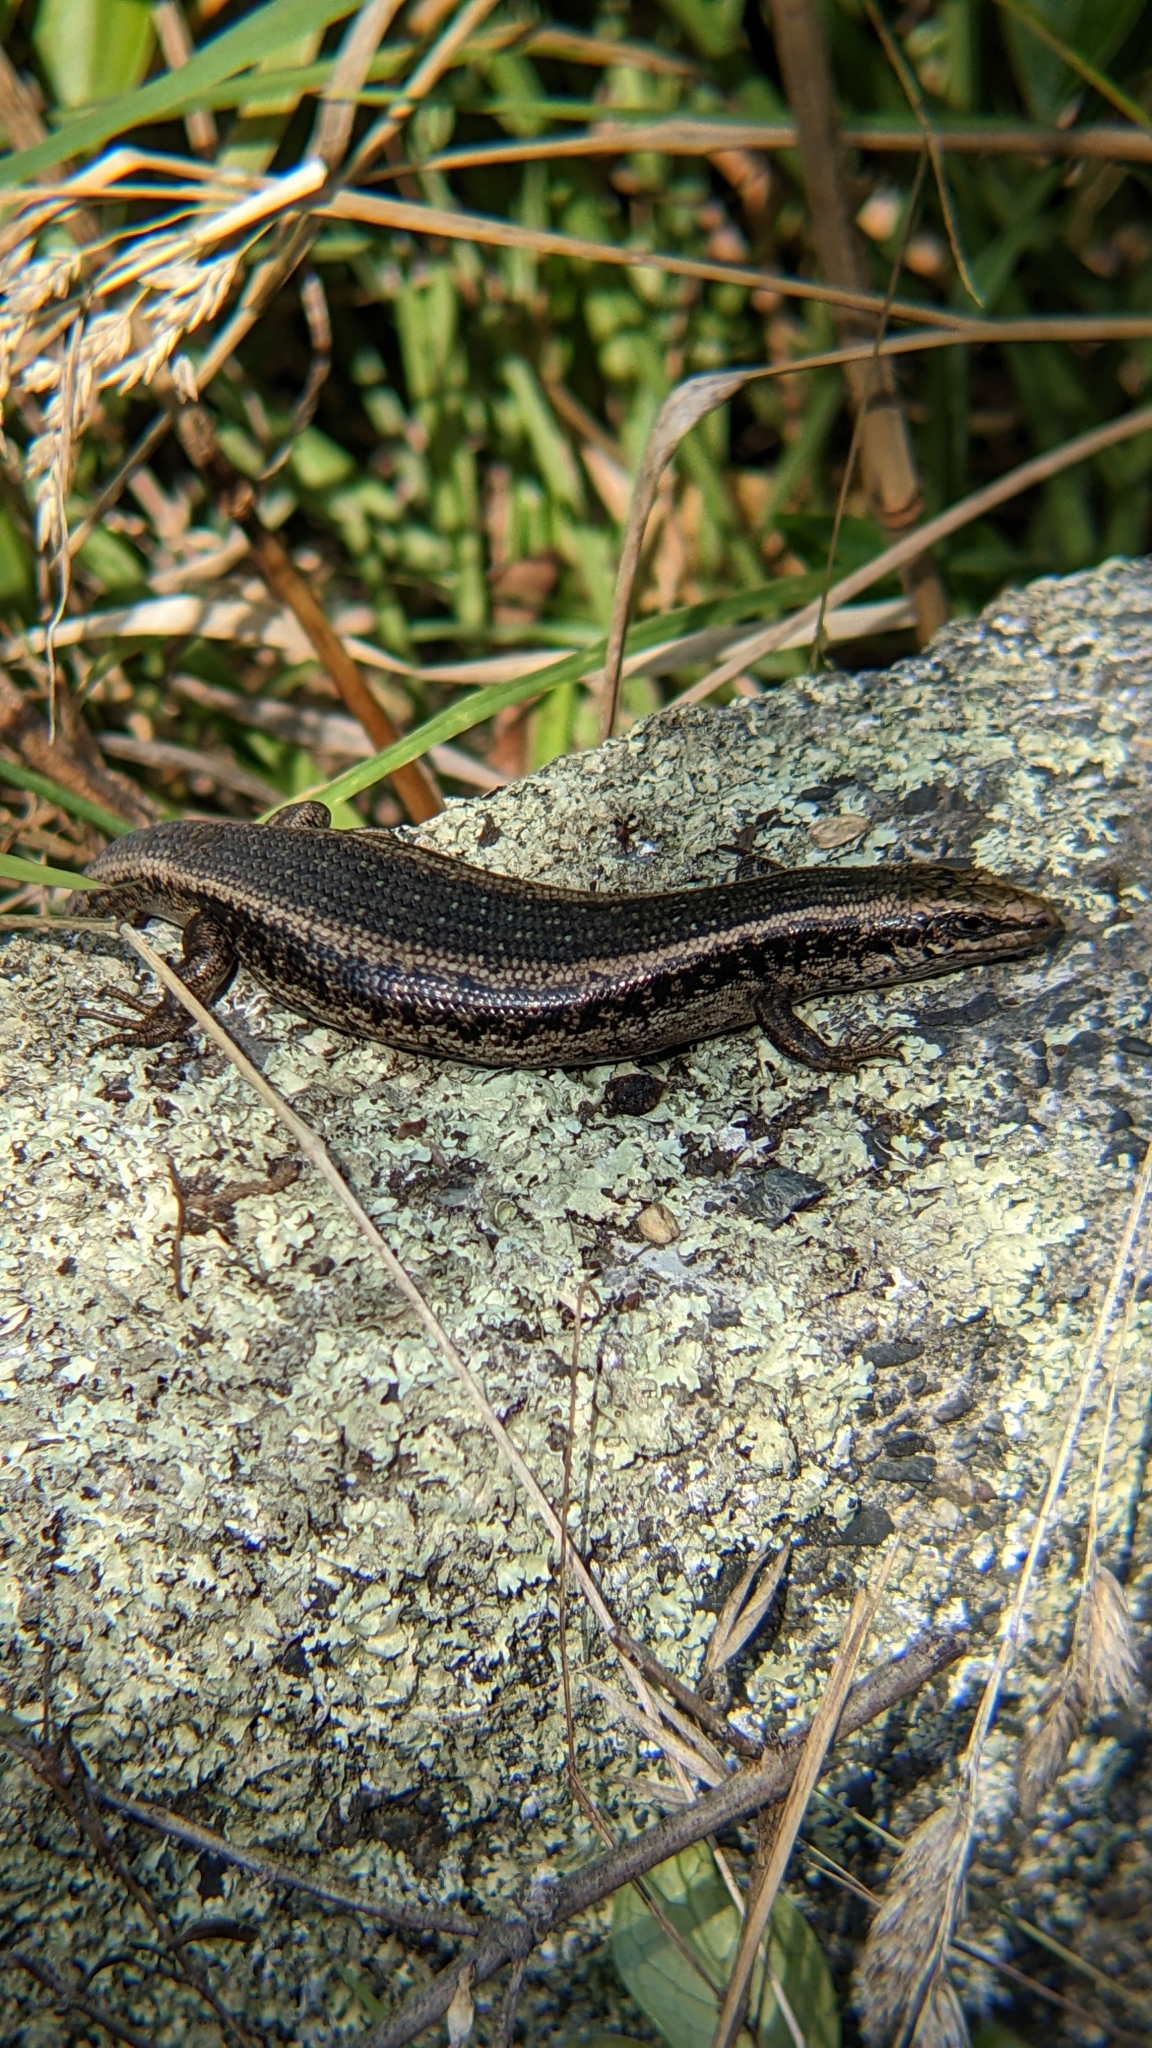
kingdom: Animalia
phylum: Chordata
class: Squamata
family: Scincidae
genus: Oligosoma
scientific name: Oligosoma kokowai
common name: Northern spotted skink
